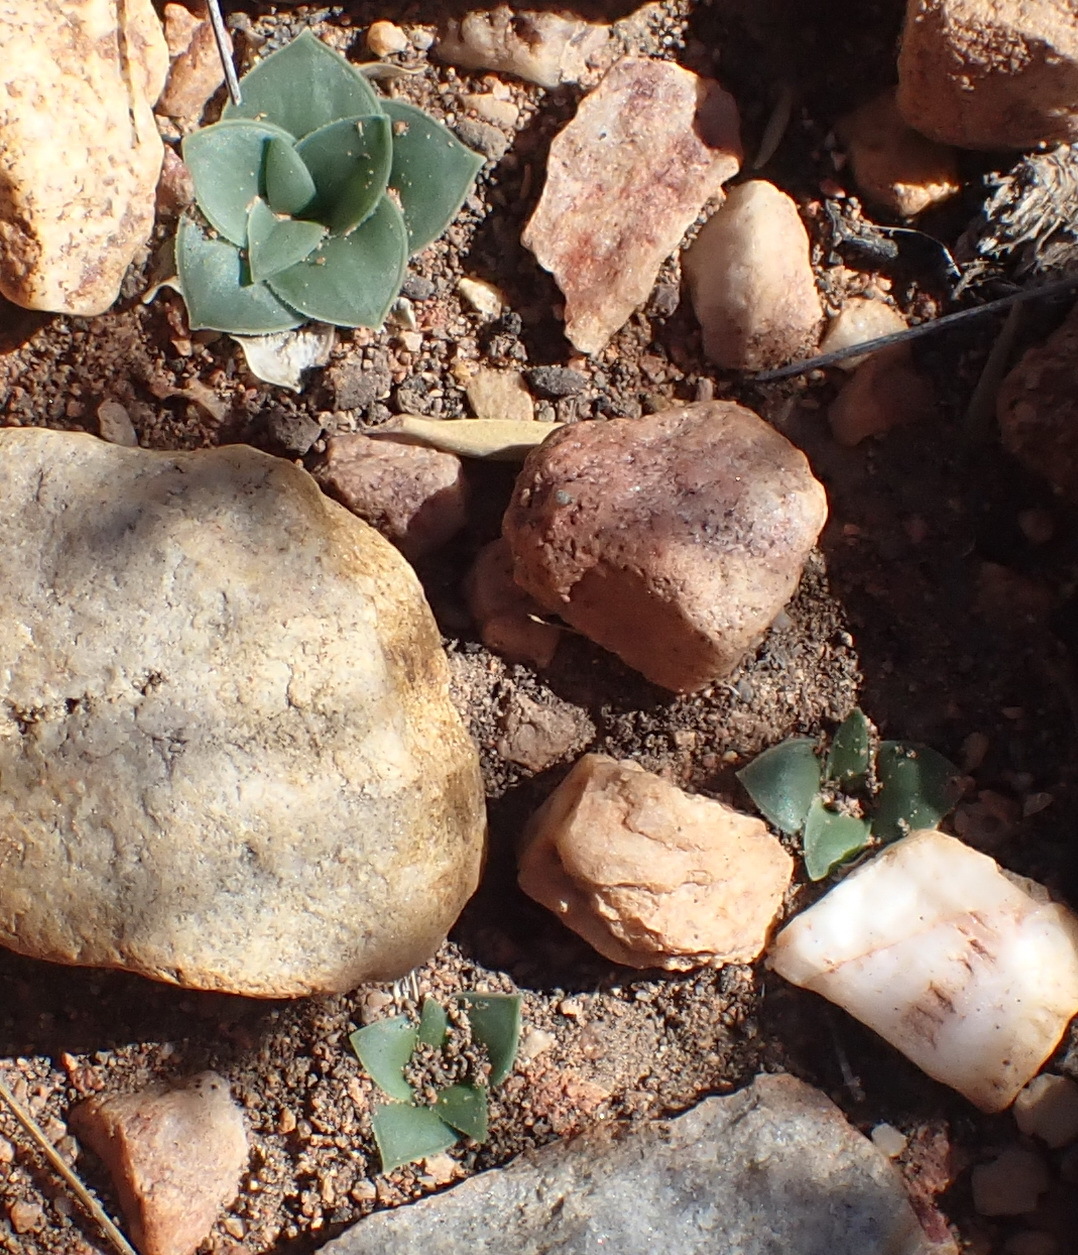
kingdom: Plantae
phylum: Tracheophyta
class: Liliopsida
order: Asparagales
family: Asparagaceae
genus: Drimia
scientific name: Drimia ciliata
